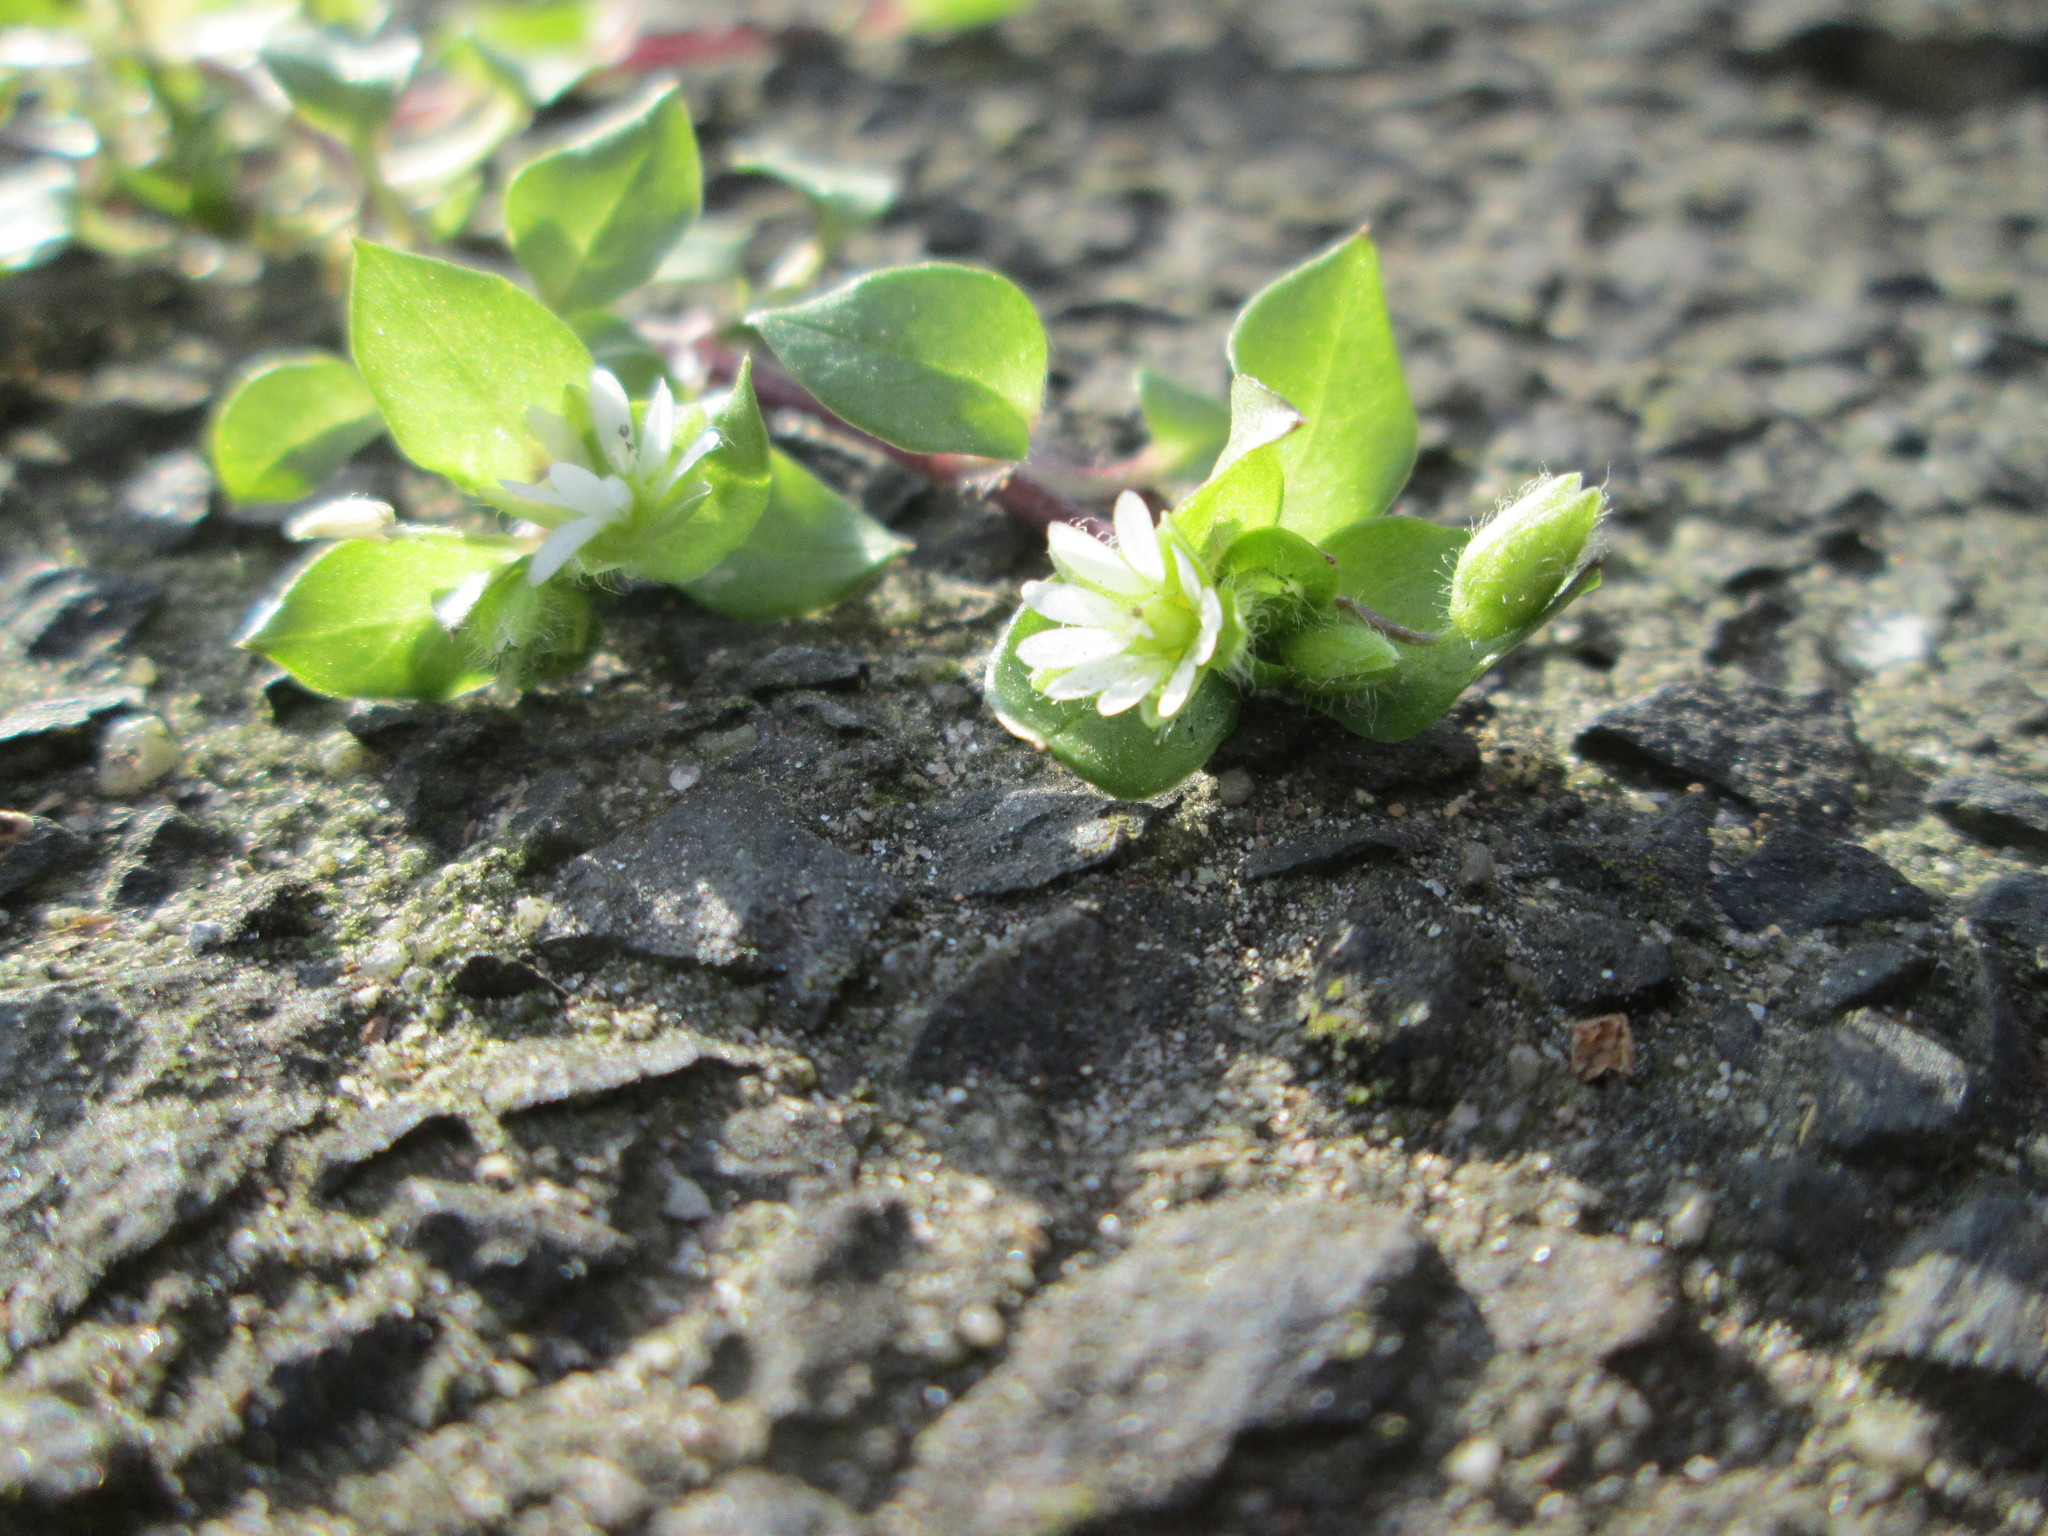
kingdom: Plantae
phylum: Tracheophyta
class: Magnoliopsida
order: Caryophyllales
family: Caryophyllaceae
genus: Stellaria
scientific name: Stellaria media
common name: Common chickweed
